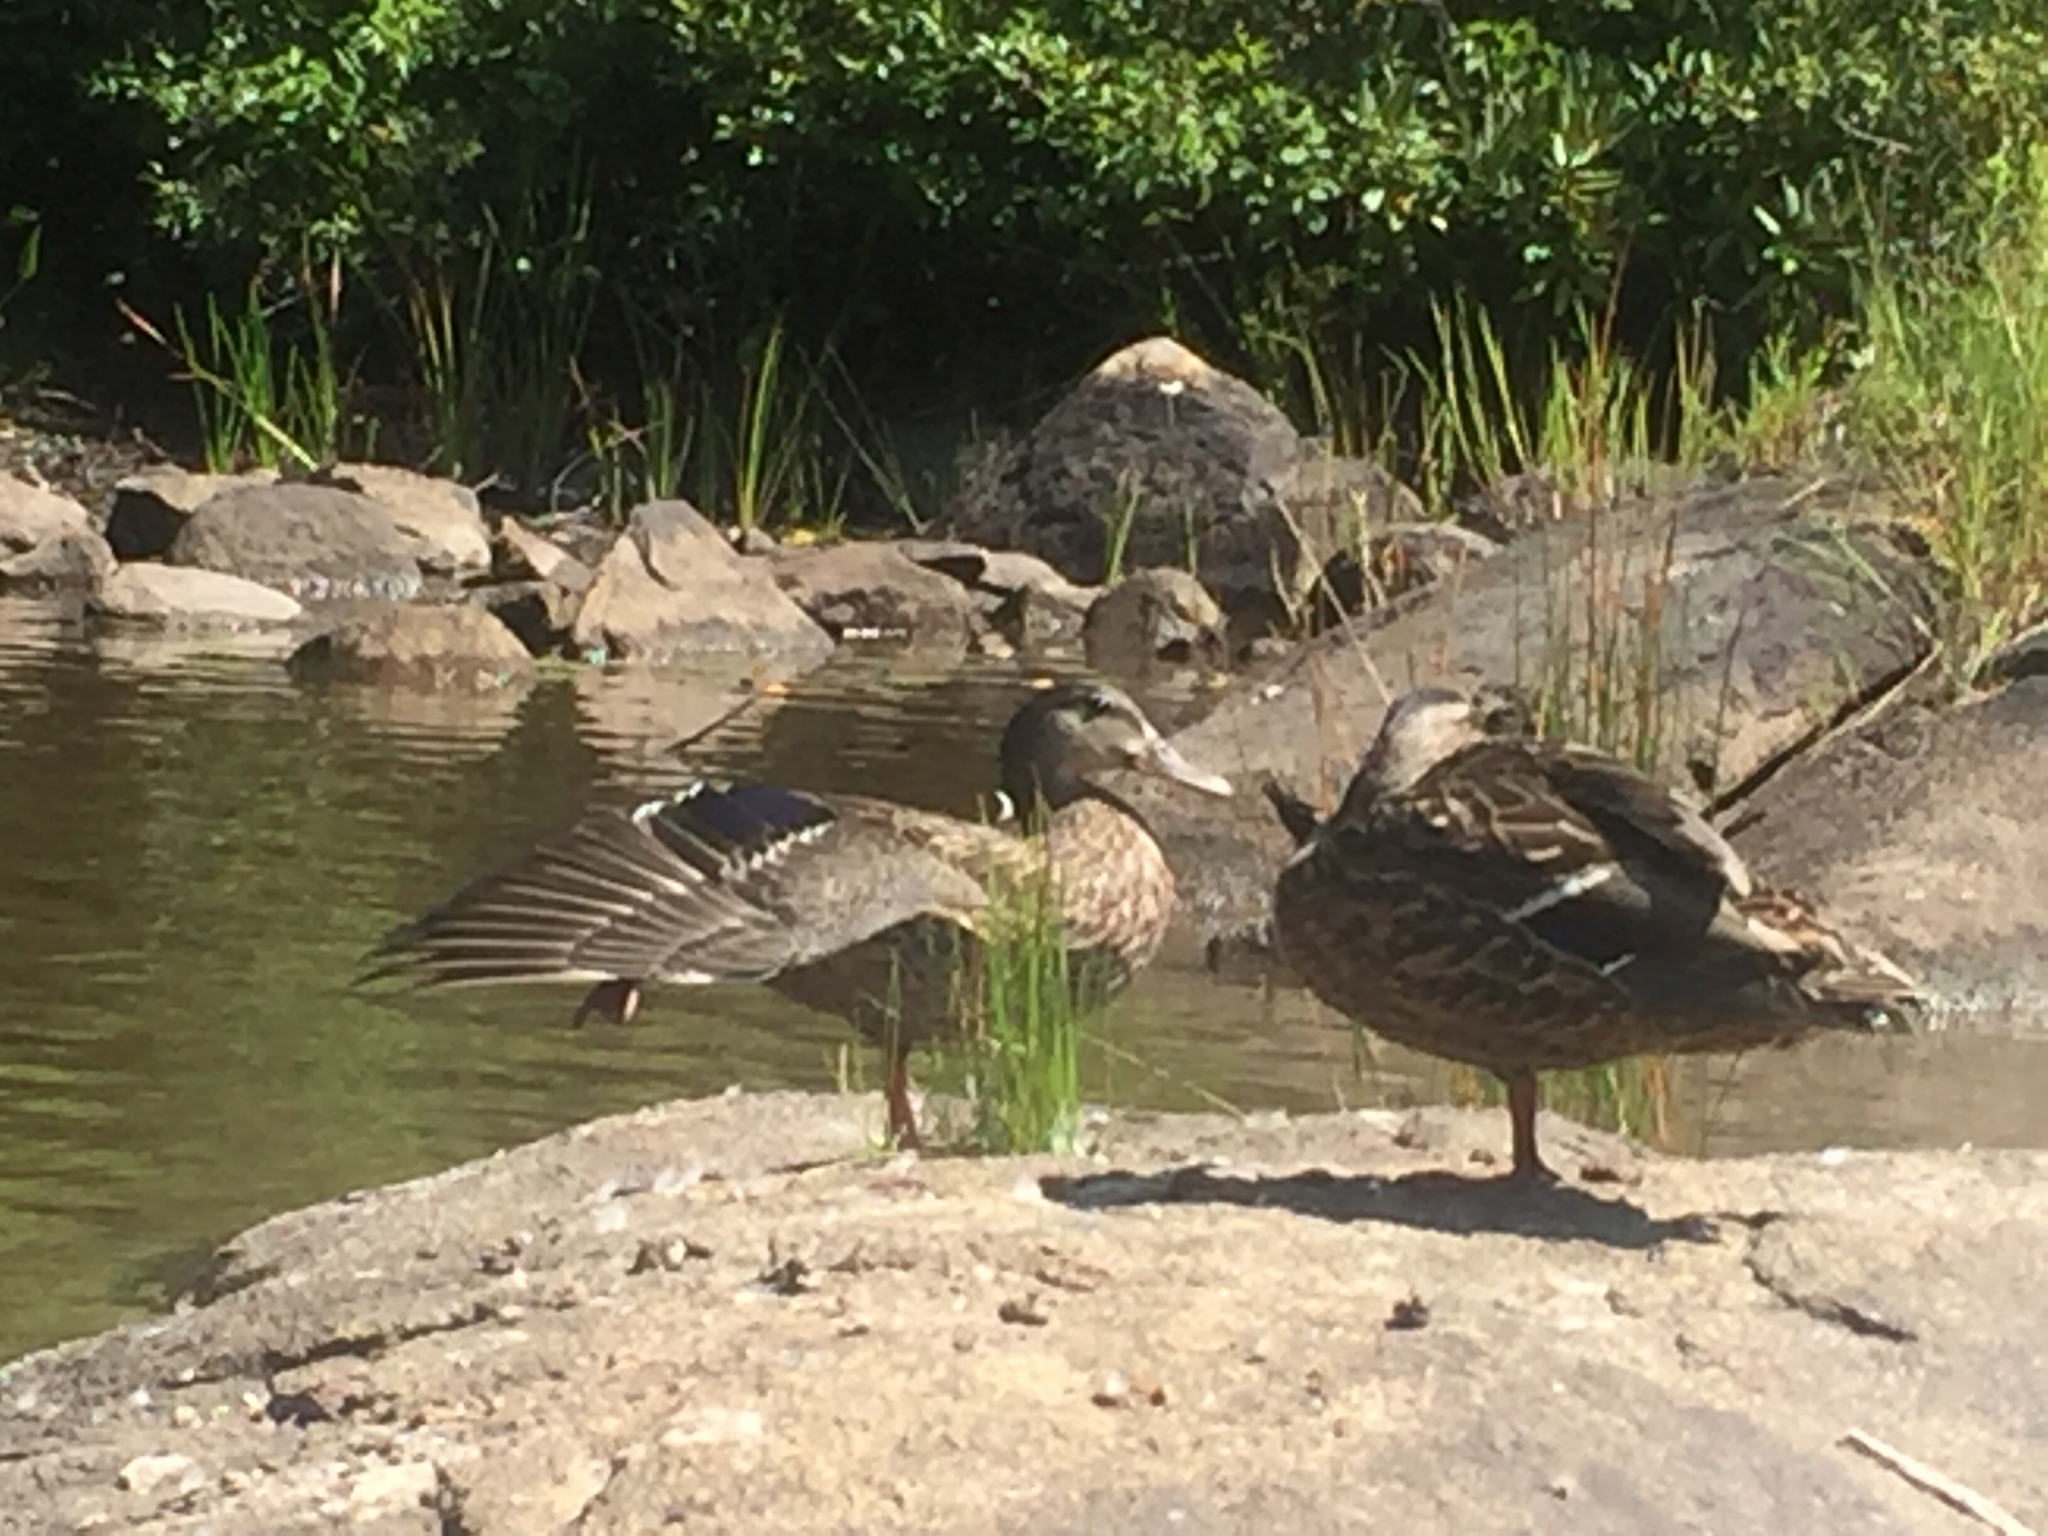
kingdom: Animalia
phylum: Chordata
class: Aves
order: Anseriformes
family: Anatidae
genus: Anas
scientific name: Anas platyrhynchos
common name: Mallard
